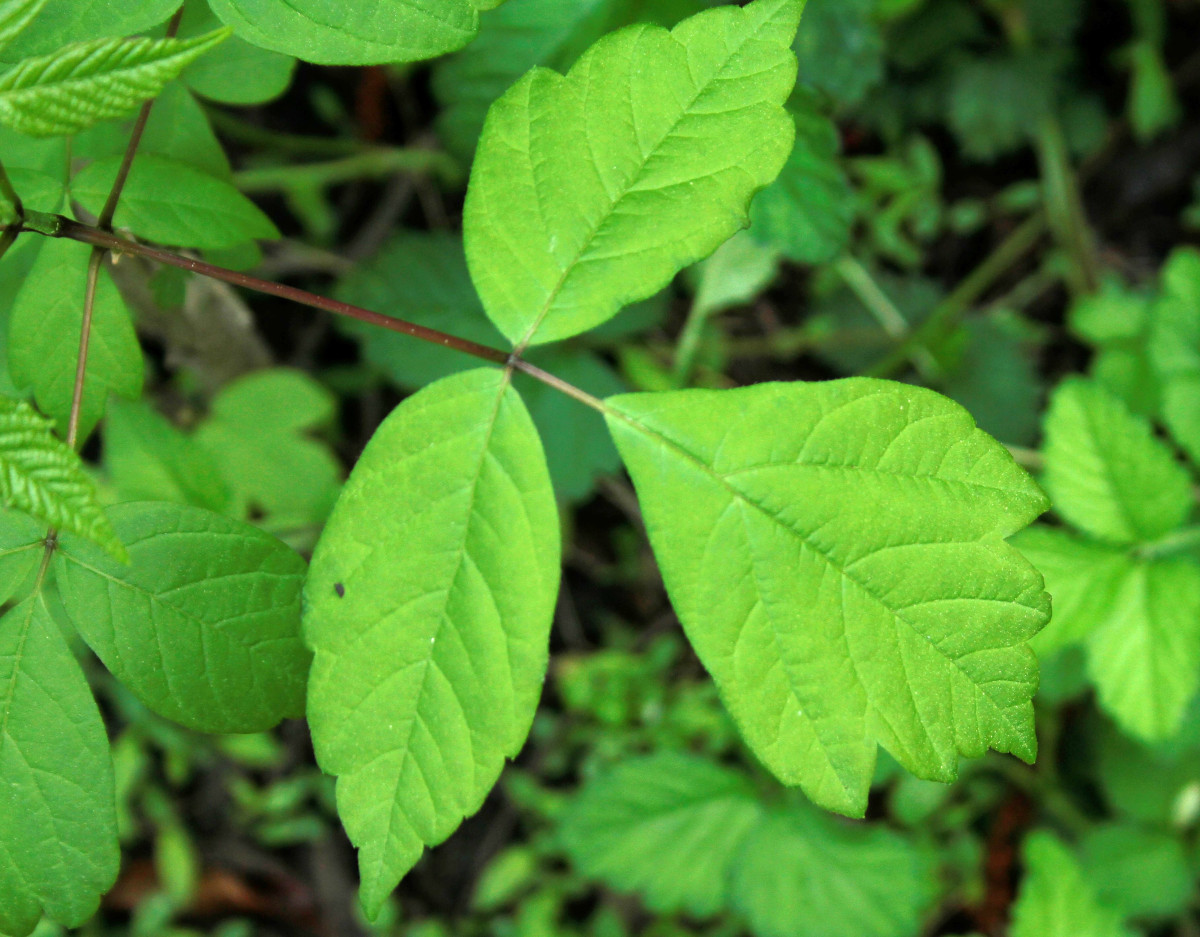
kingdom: Plantae
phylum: Tracheophyta
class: Magnoliopsida
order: Sapindales
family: Sapindaceae
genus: Acer
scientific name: Acer negundo
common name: Ashleaf maple
